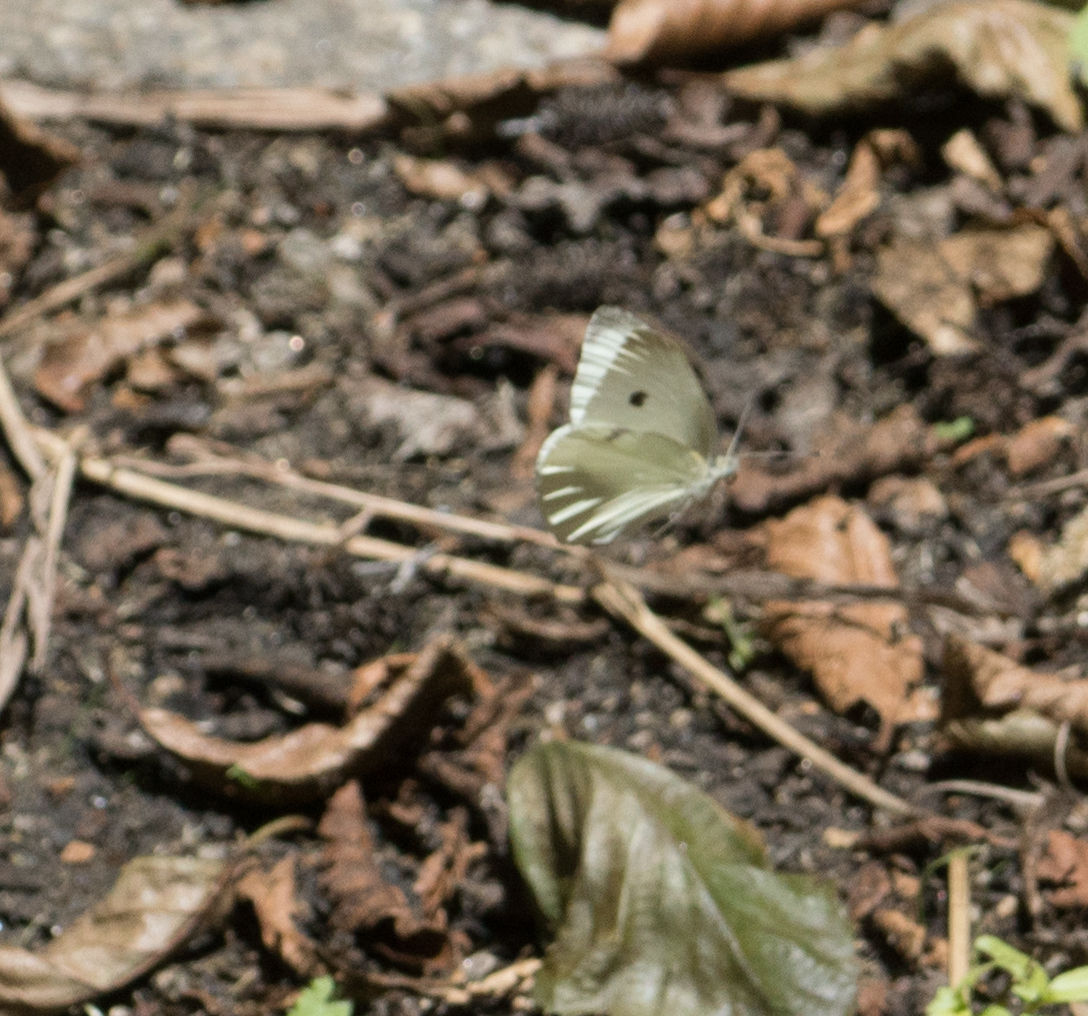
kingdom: Animalia
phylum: Arthropoda
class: Insecta
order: Lepidoptera
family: Pieridae
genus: Pieris
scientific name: Pieris rapae
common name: Small white
